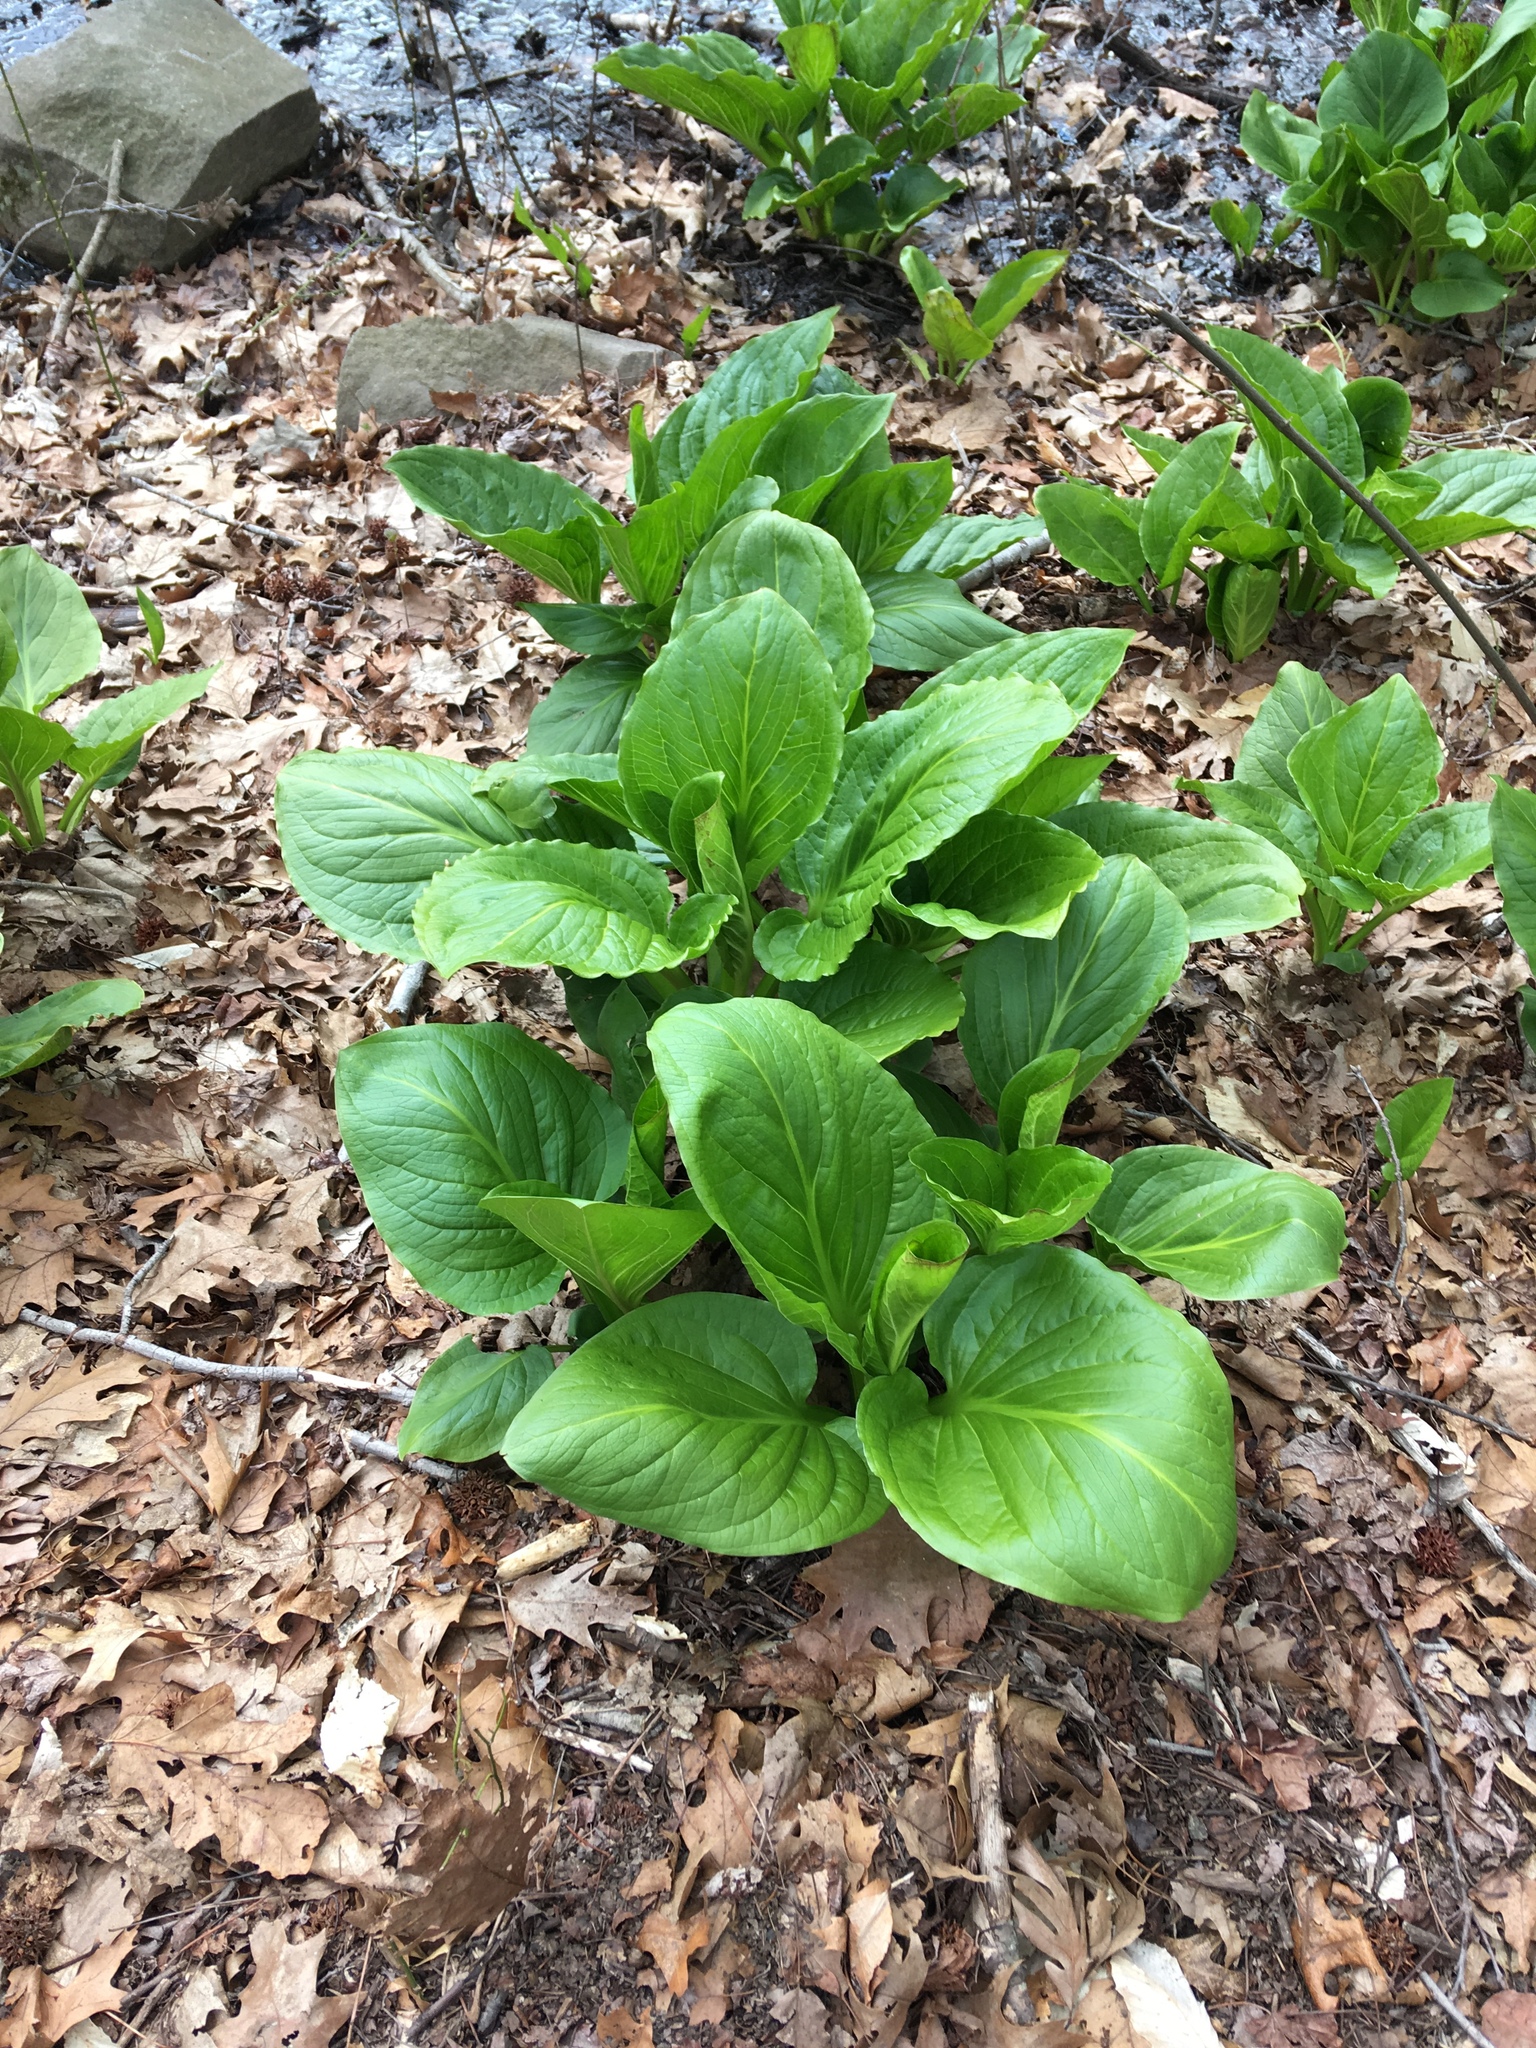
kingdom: Plantae
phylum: Tracheophyta
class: Liliopsida
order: Alismatales
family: Araceae
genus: Symplocarpus
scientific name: Symplocarpus foetidus
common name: Eastern skunk cabbage
